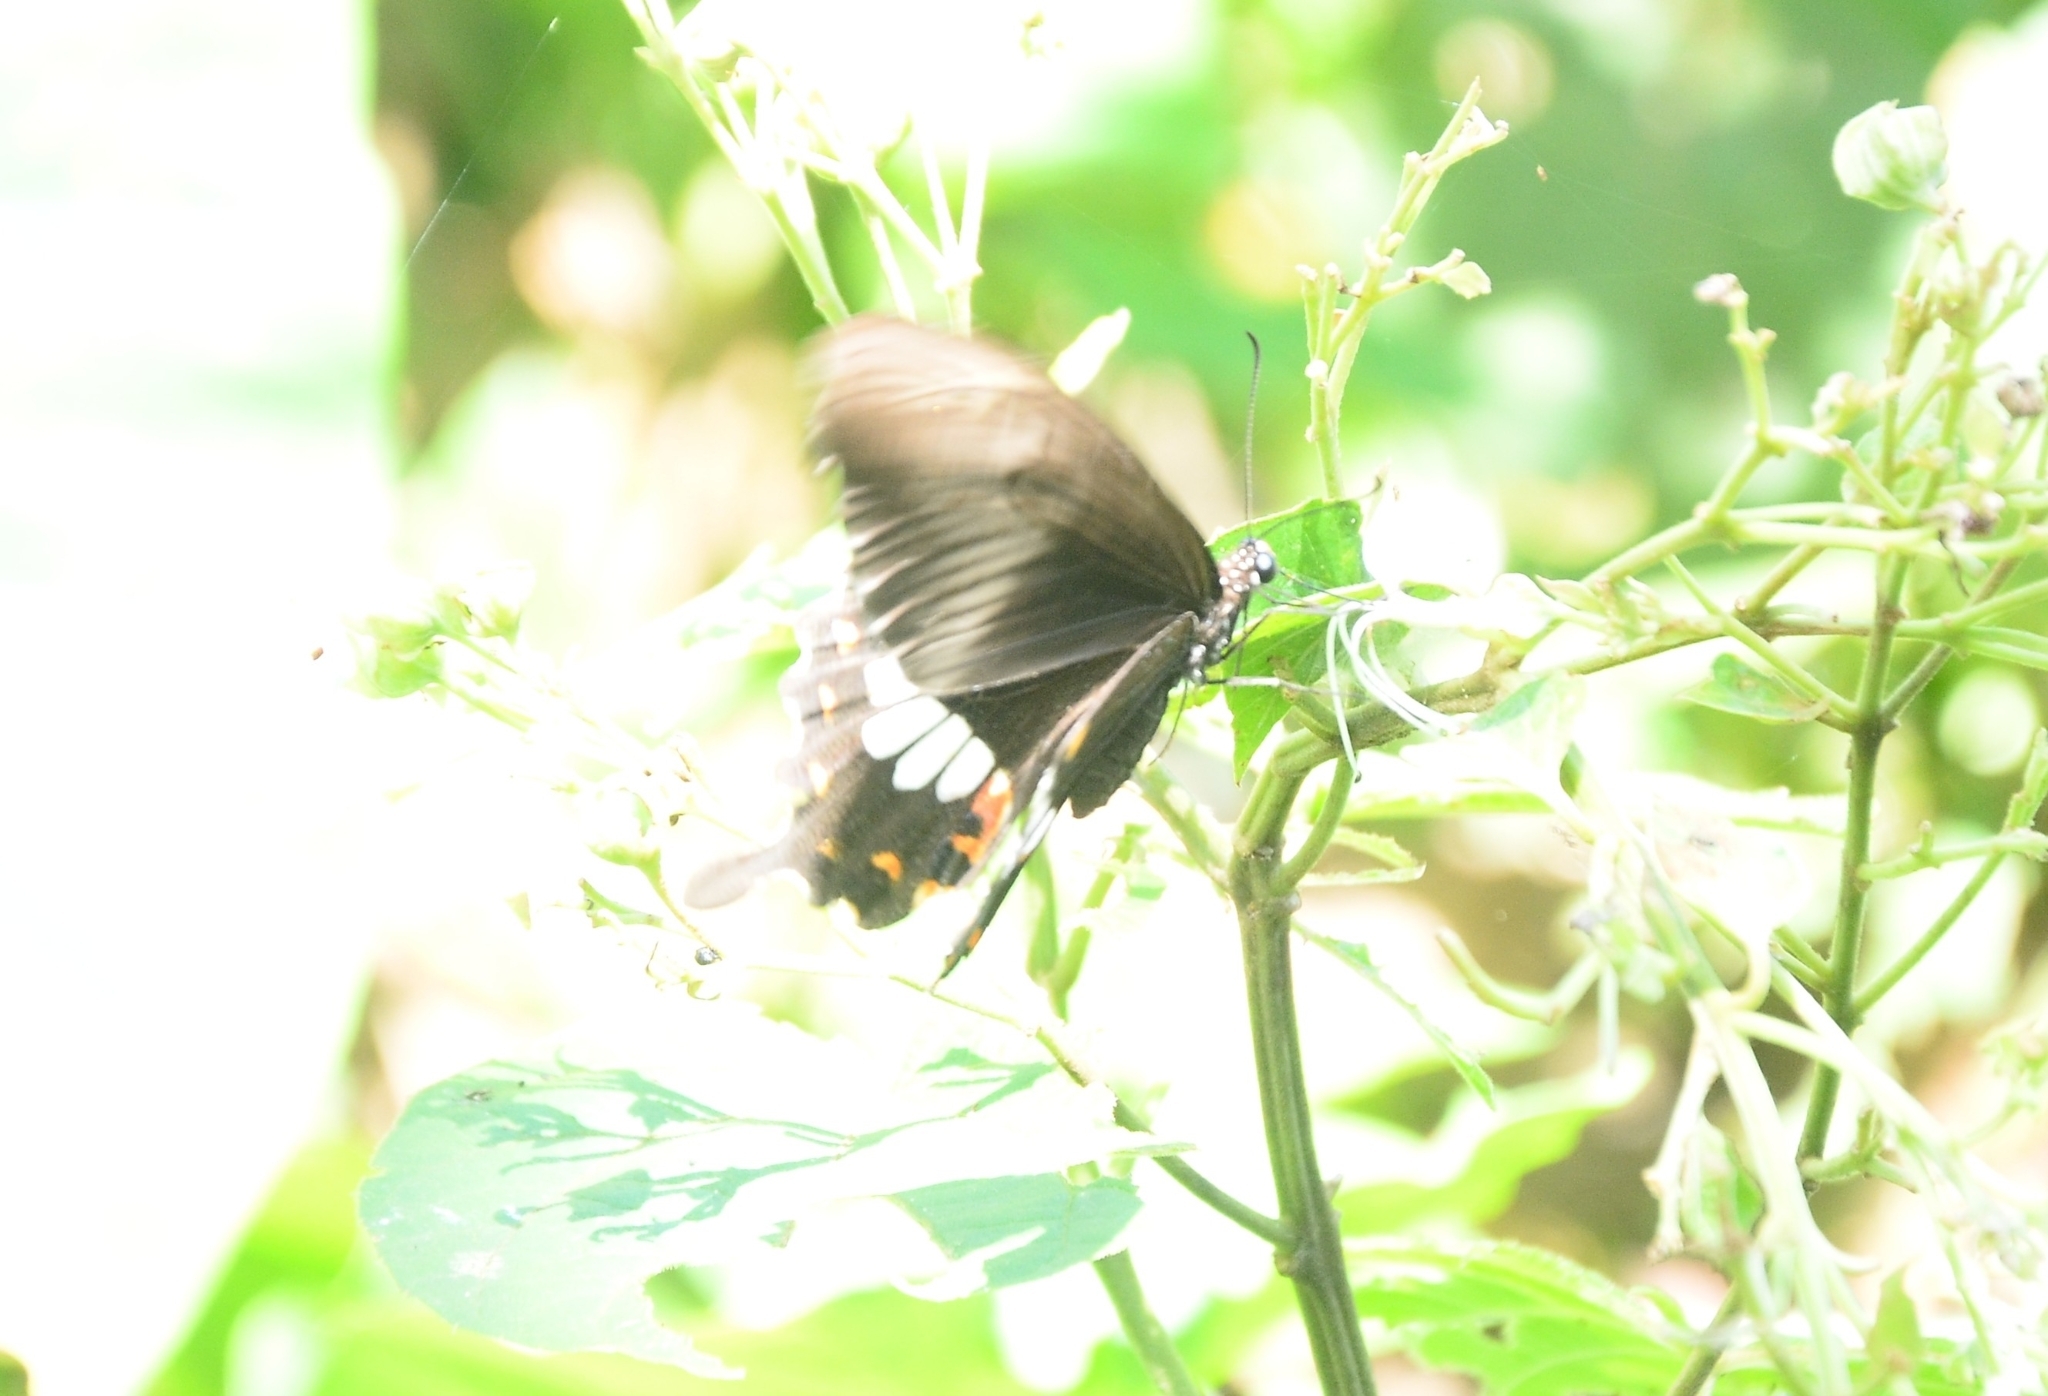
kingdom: Animalia
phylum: Arthropoda
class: Insecta
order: Lepidoptera
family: Papilionidae
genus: Papilio
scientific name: Papilio polytes
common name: Common mormon
